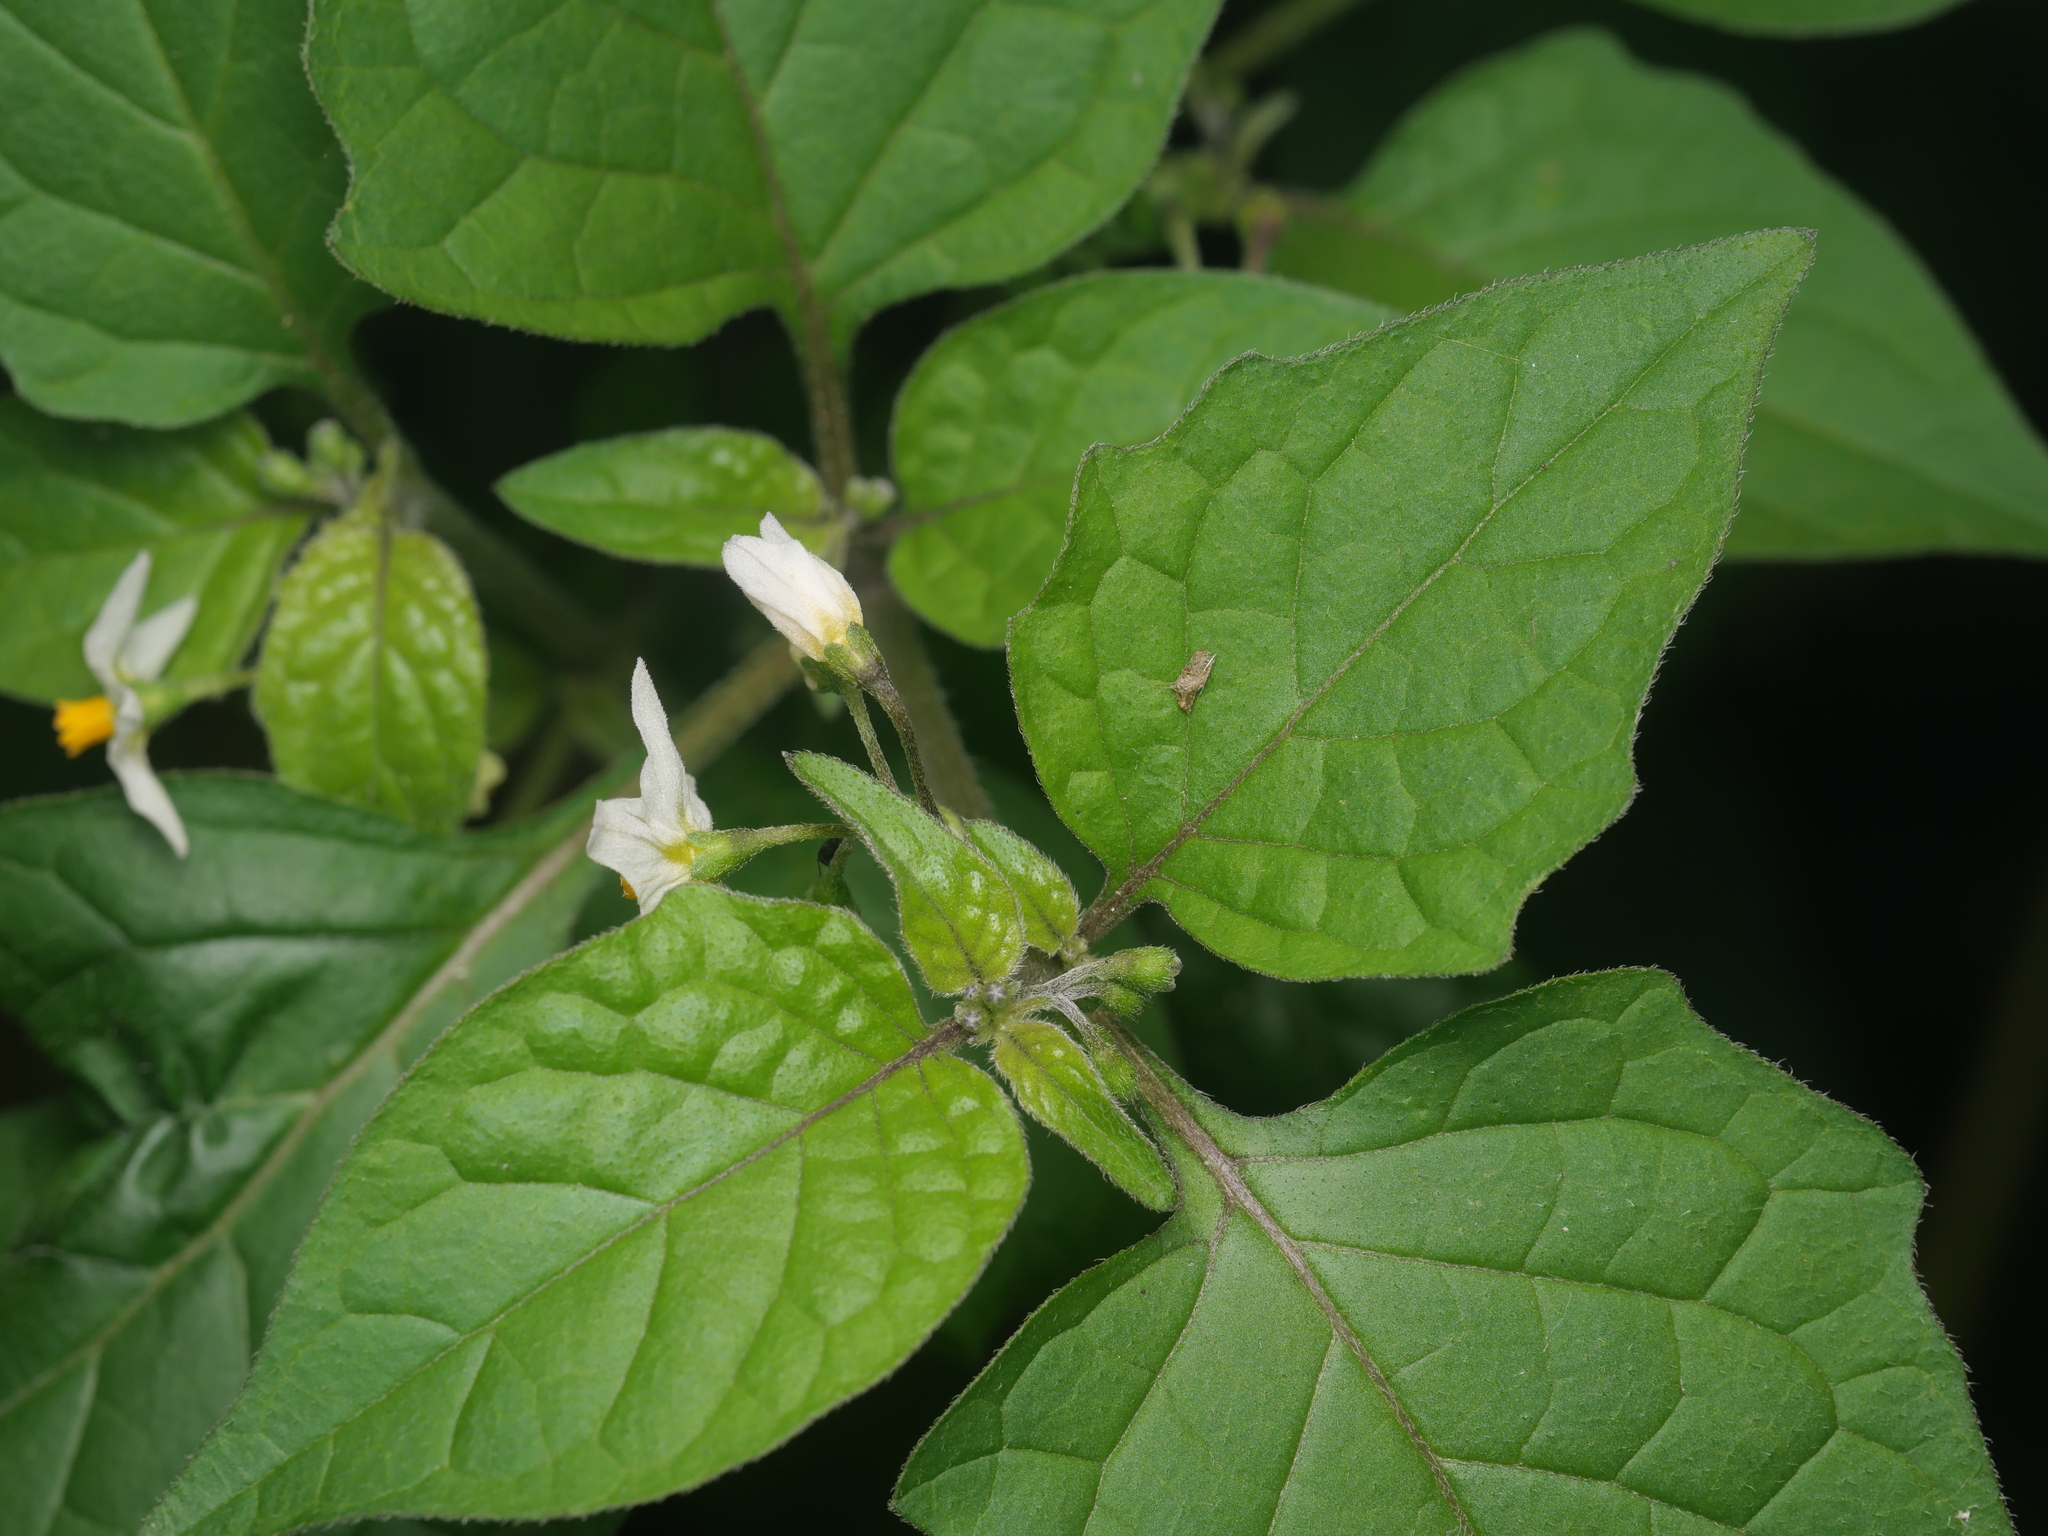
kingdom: Plantae
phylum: Tracheophyta
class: Magnoliopsida
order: Solanales
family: Solanaceae
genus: Solanum
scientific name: Solanum nigrum
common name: Black nightshade
